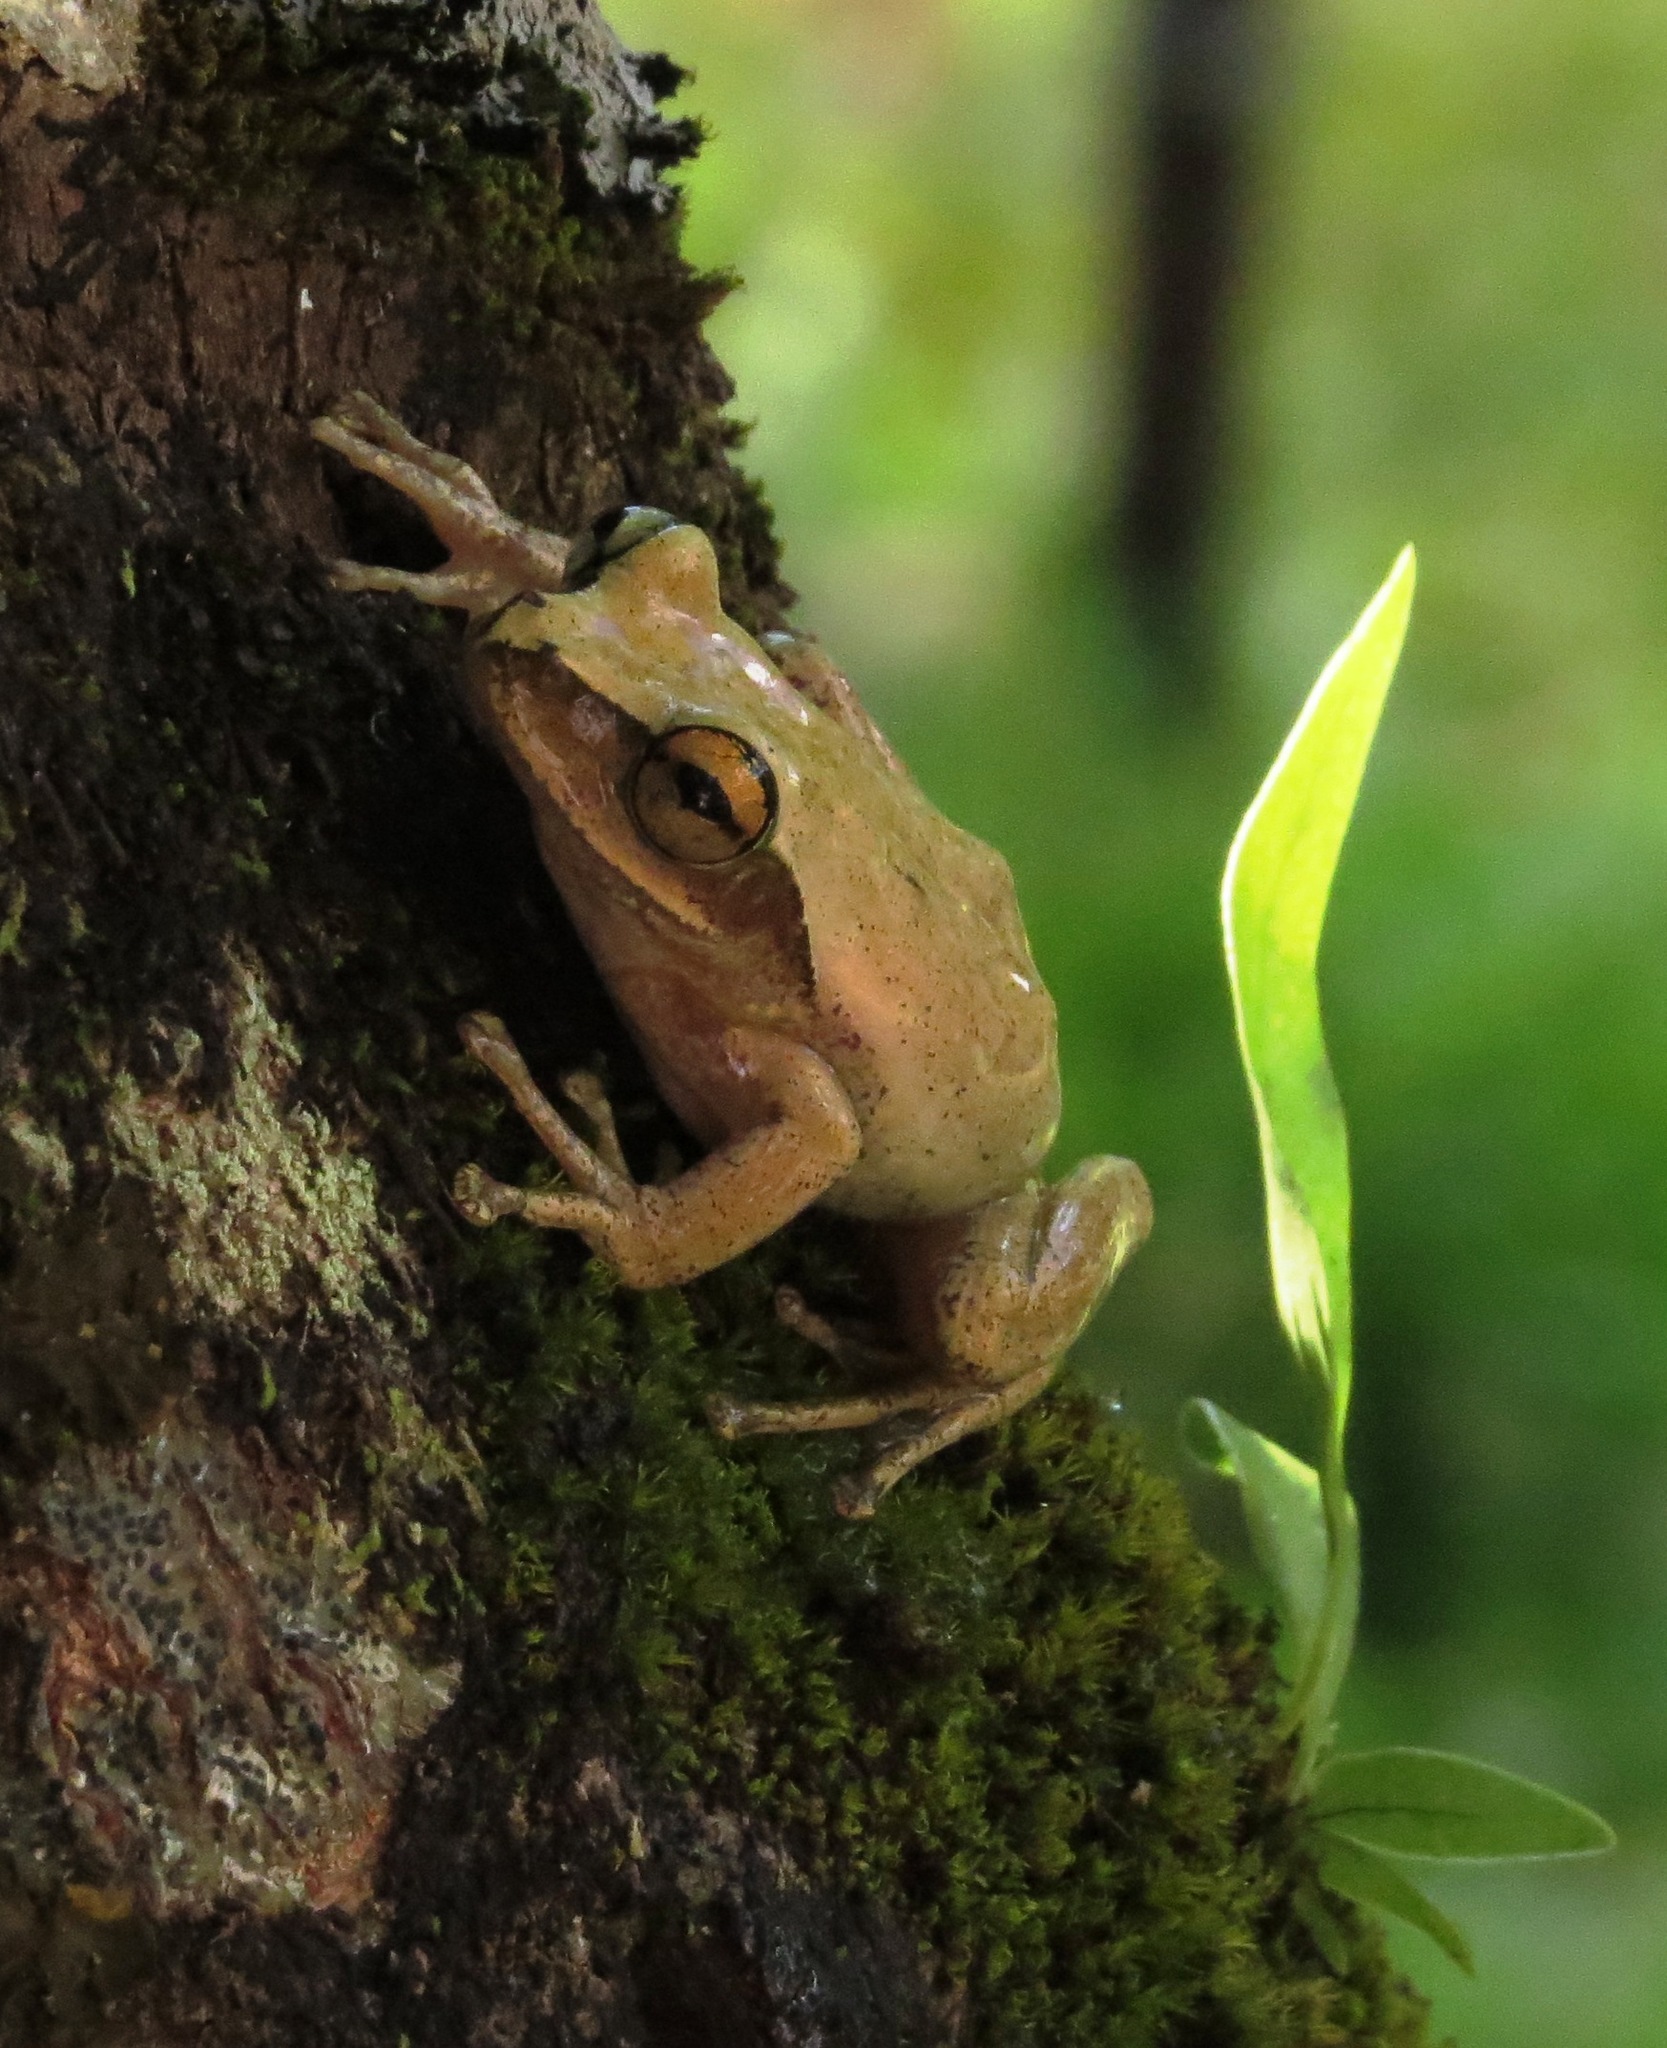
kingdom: Animalia
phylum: Chordata
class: Amphibia
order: Anura
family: Mantellidae
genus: Boophis
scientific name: Boophis tephraeomystax
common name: Dumeril's bright-eyed frog
